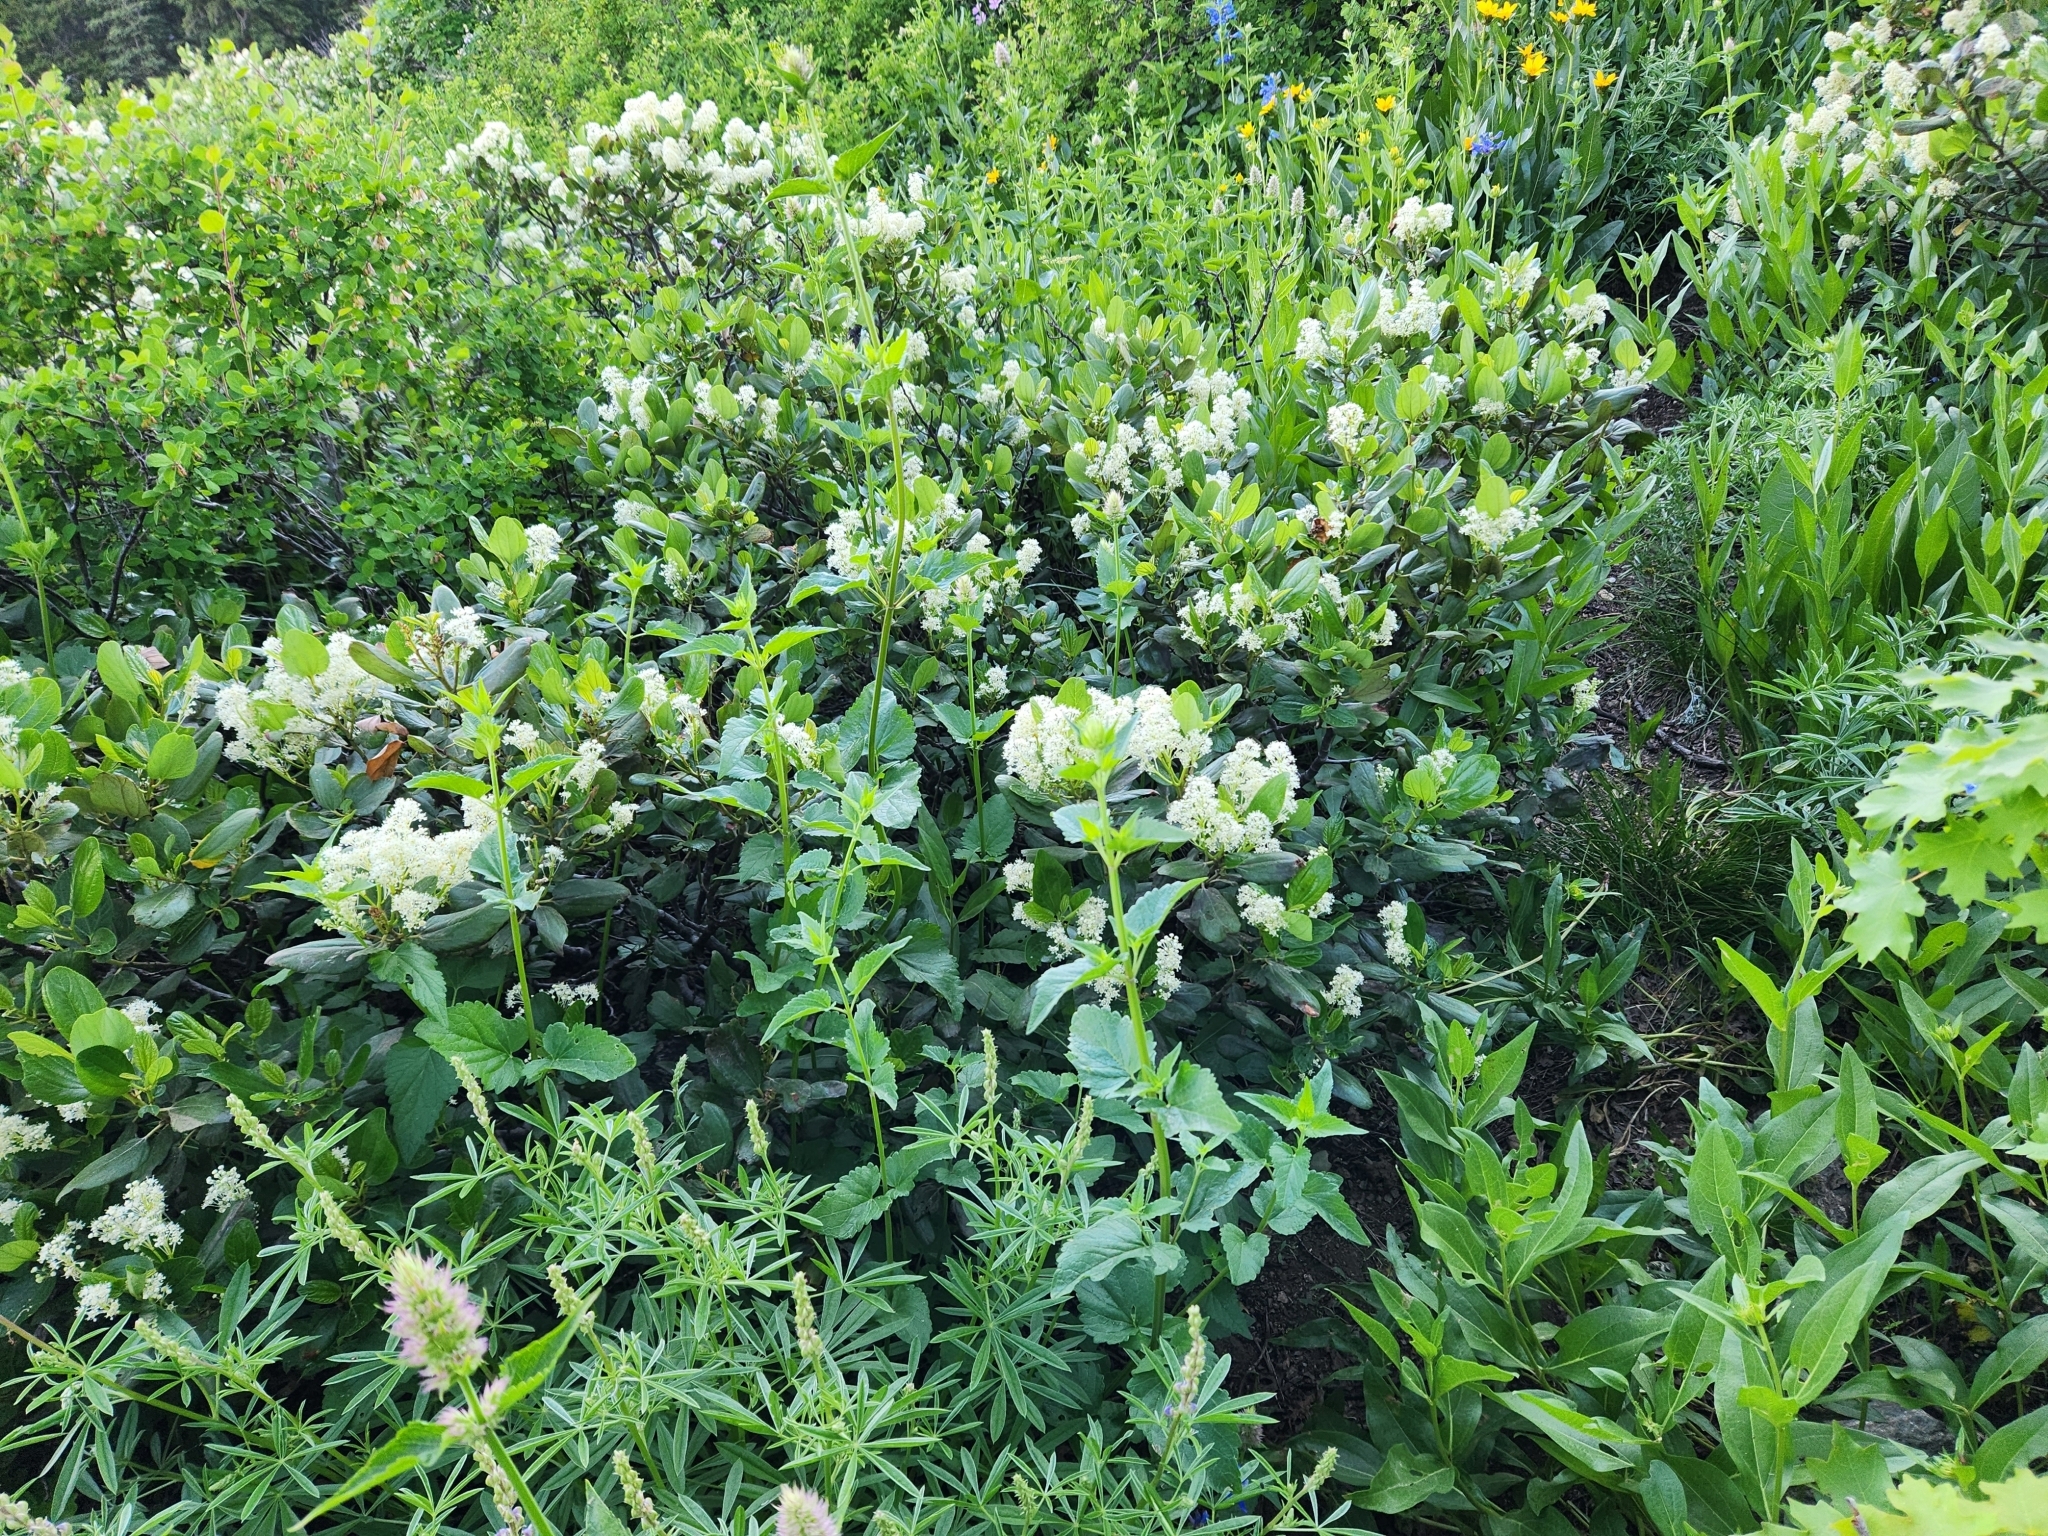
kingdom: Plantae
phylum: Tracheophyta
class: Magnoliopsida
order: Rosales
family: Rhamnaceae
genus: Ceanothus
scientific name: Ceanothus velutinus
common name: Snowbrush
